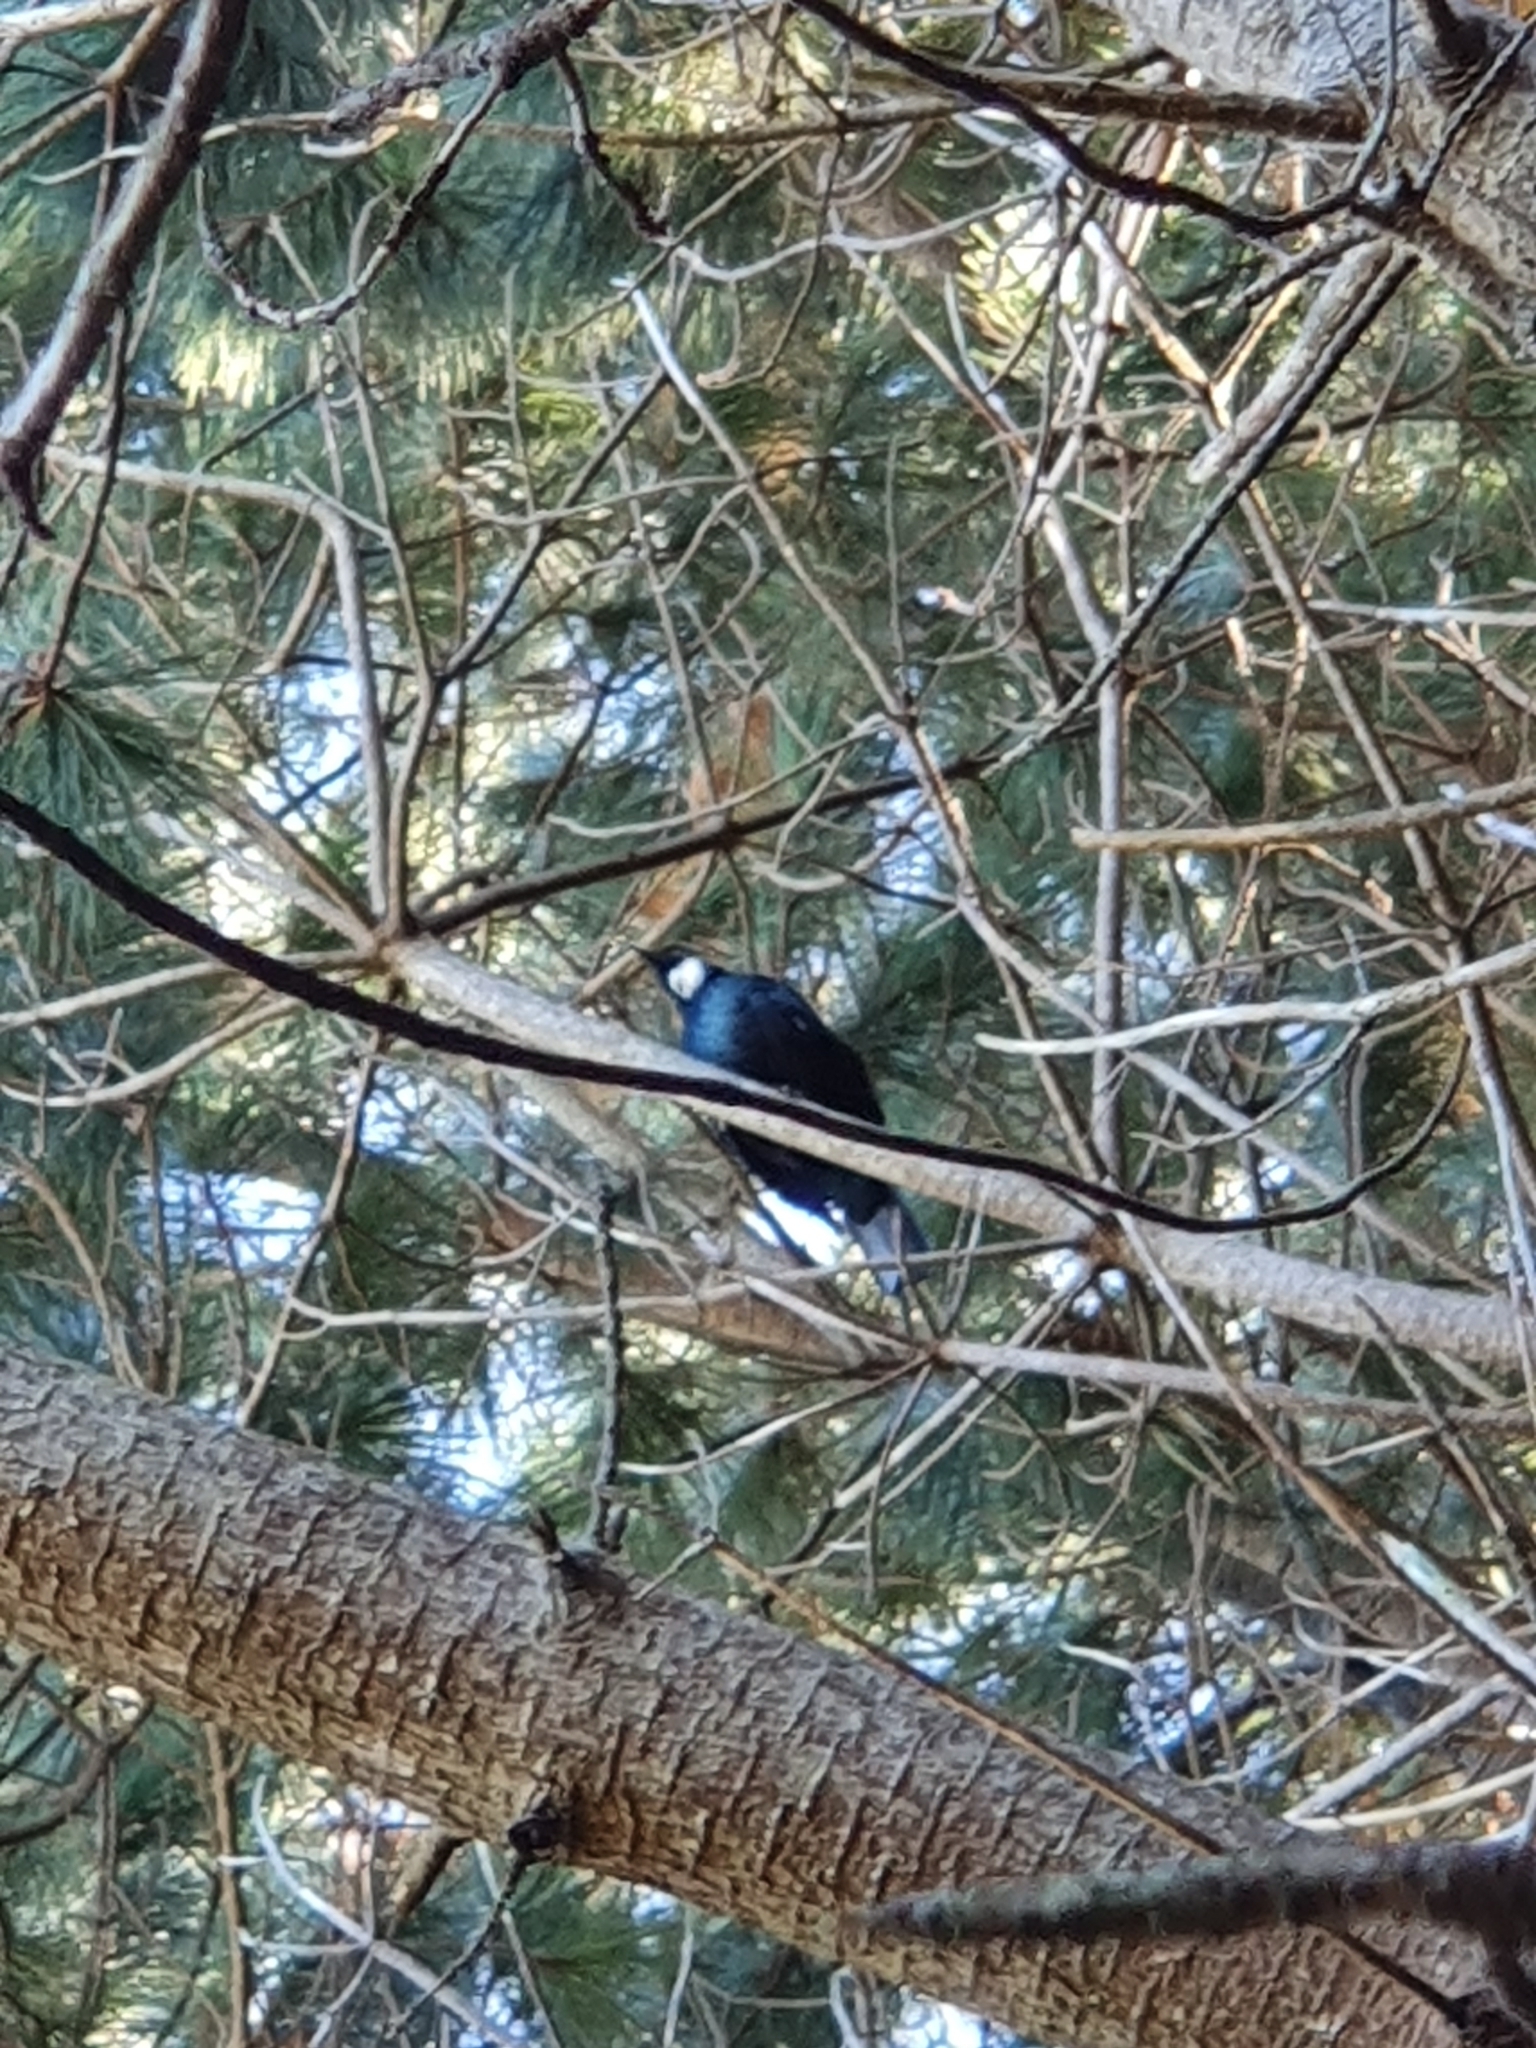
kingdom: Animalia
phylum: Chordata
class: Aves
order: Passeriformes
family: Meliphagidae
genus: Prosthemadera
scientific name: Prosthemadera novaeseelandiae
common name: Tui
